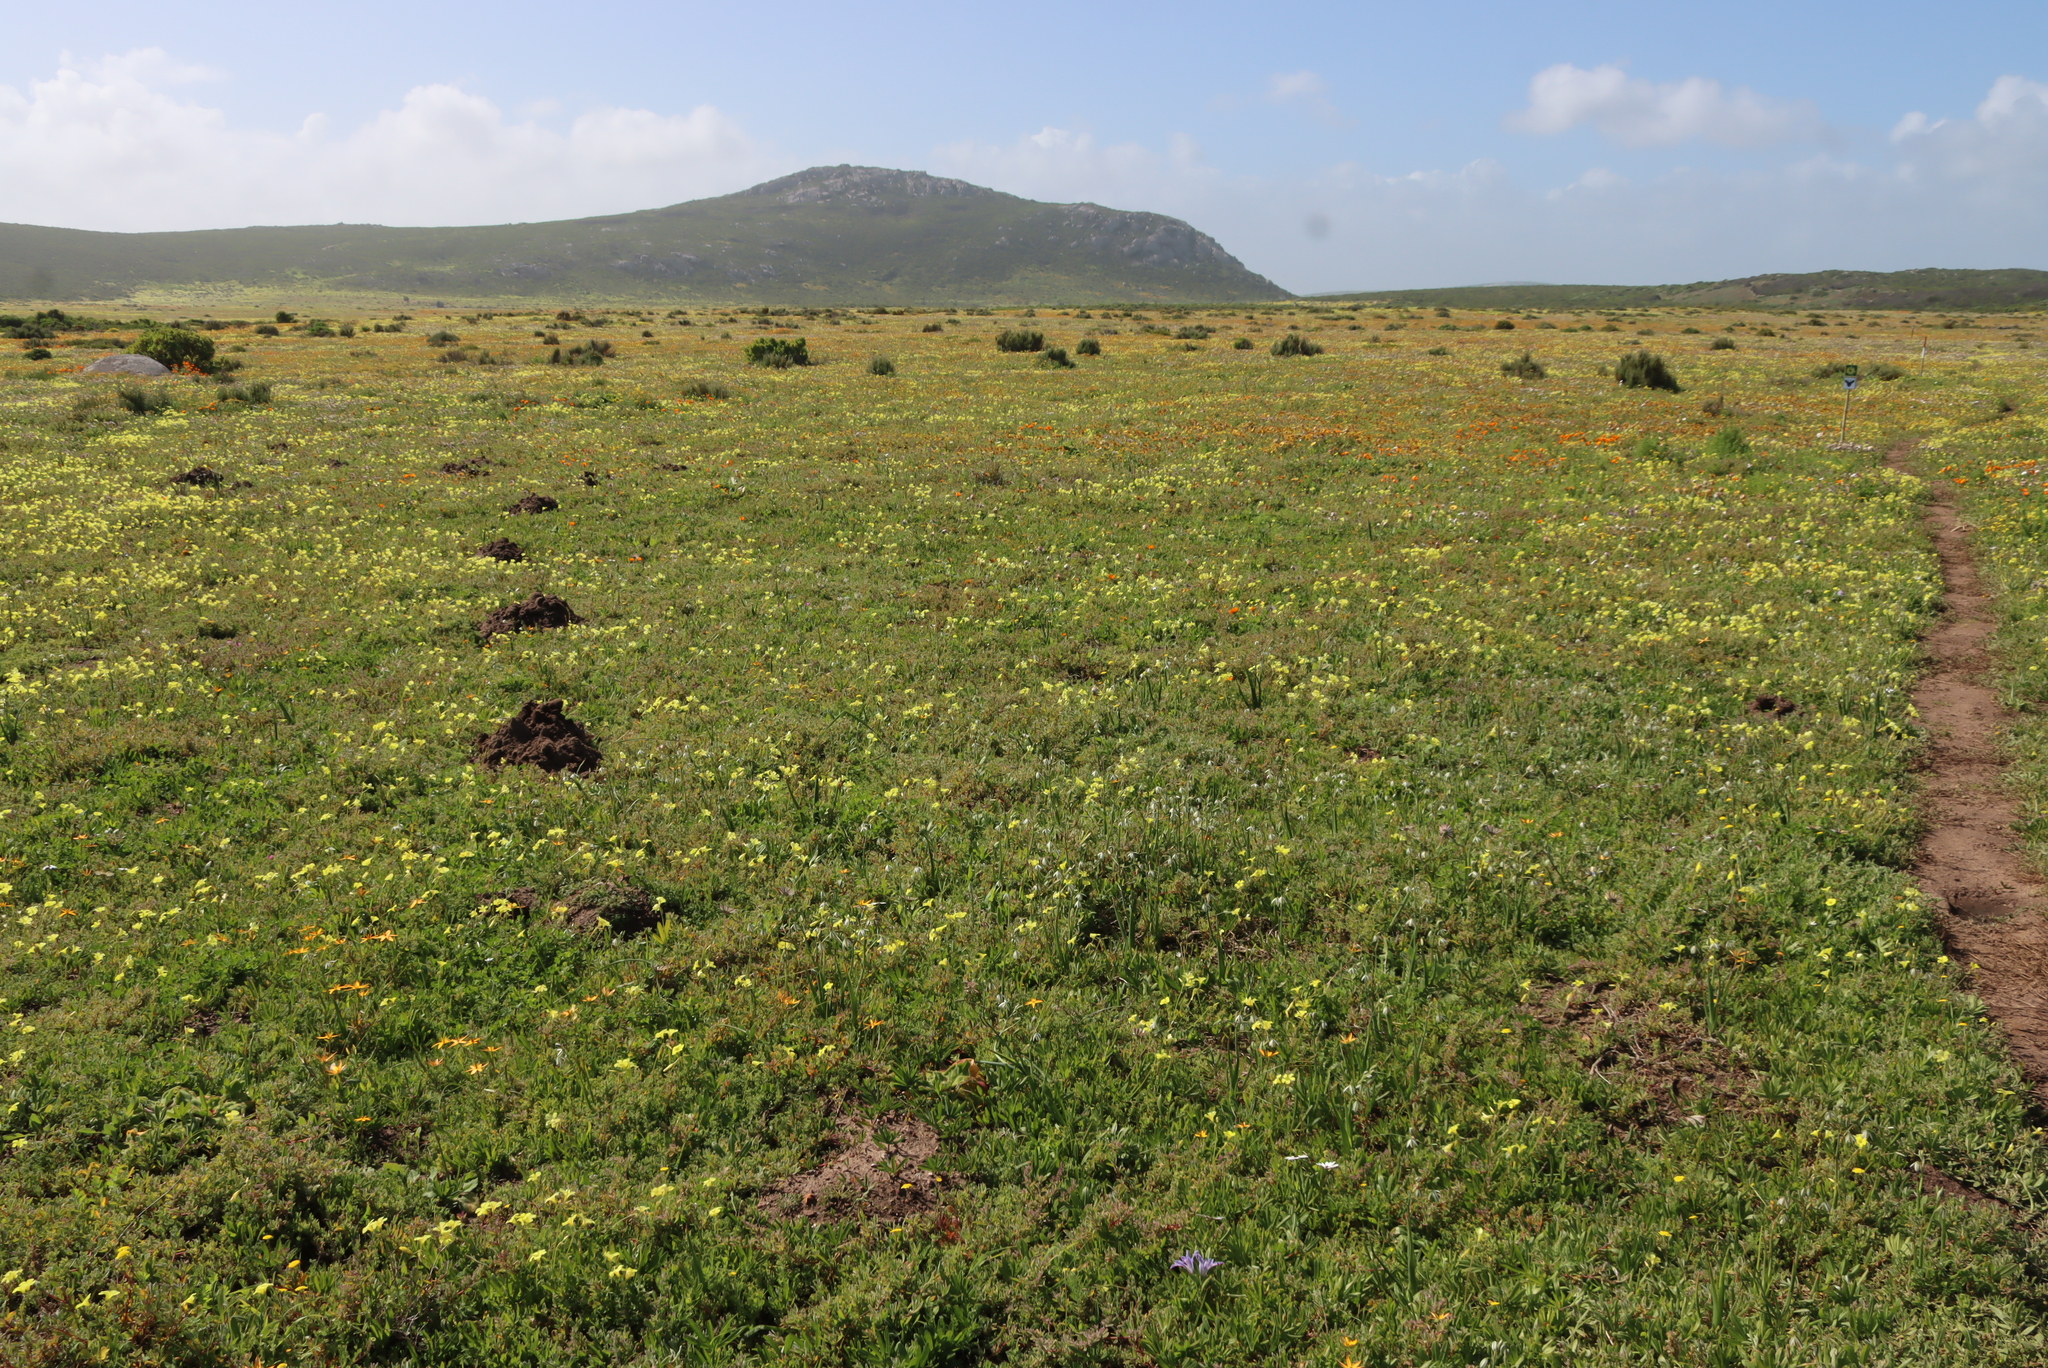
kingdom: Animalia
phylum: Chordata
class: Mammalia
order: Rodentia
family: Bathyergidae
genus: Bathyergus
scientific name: Bathyergus suillus
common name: Cape dune mole rat
